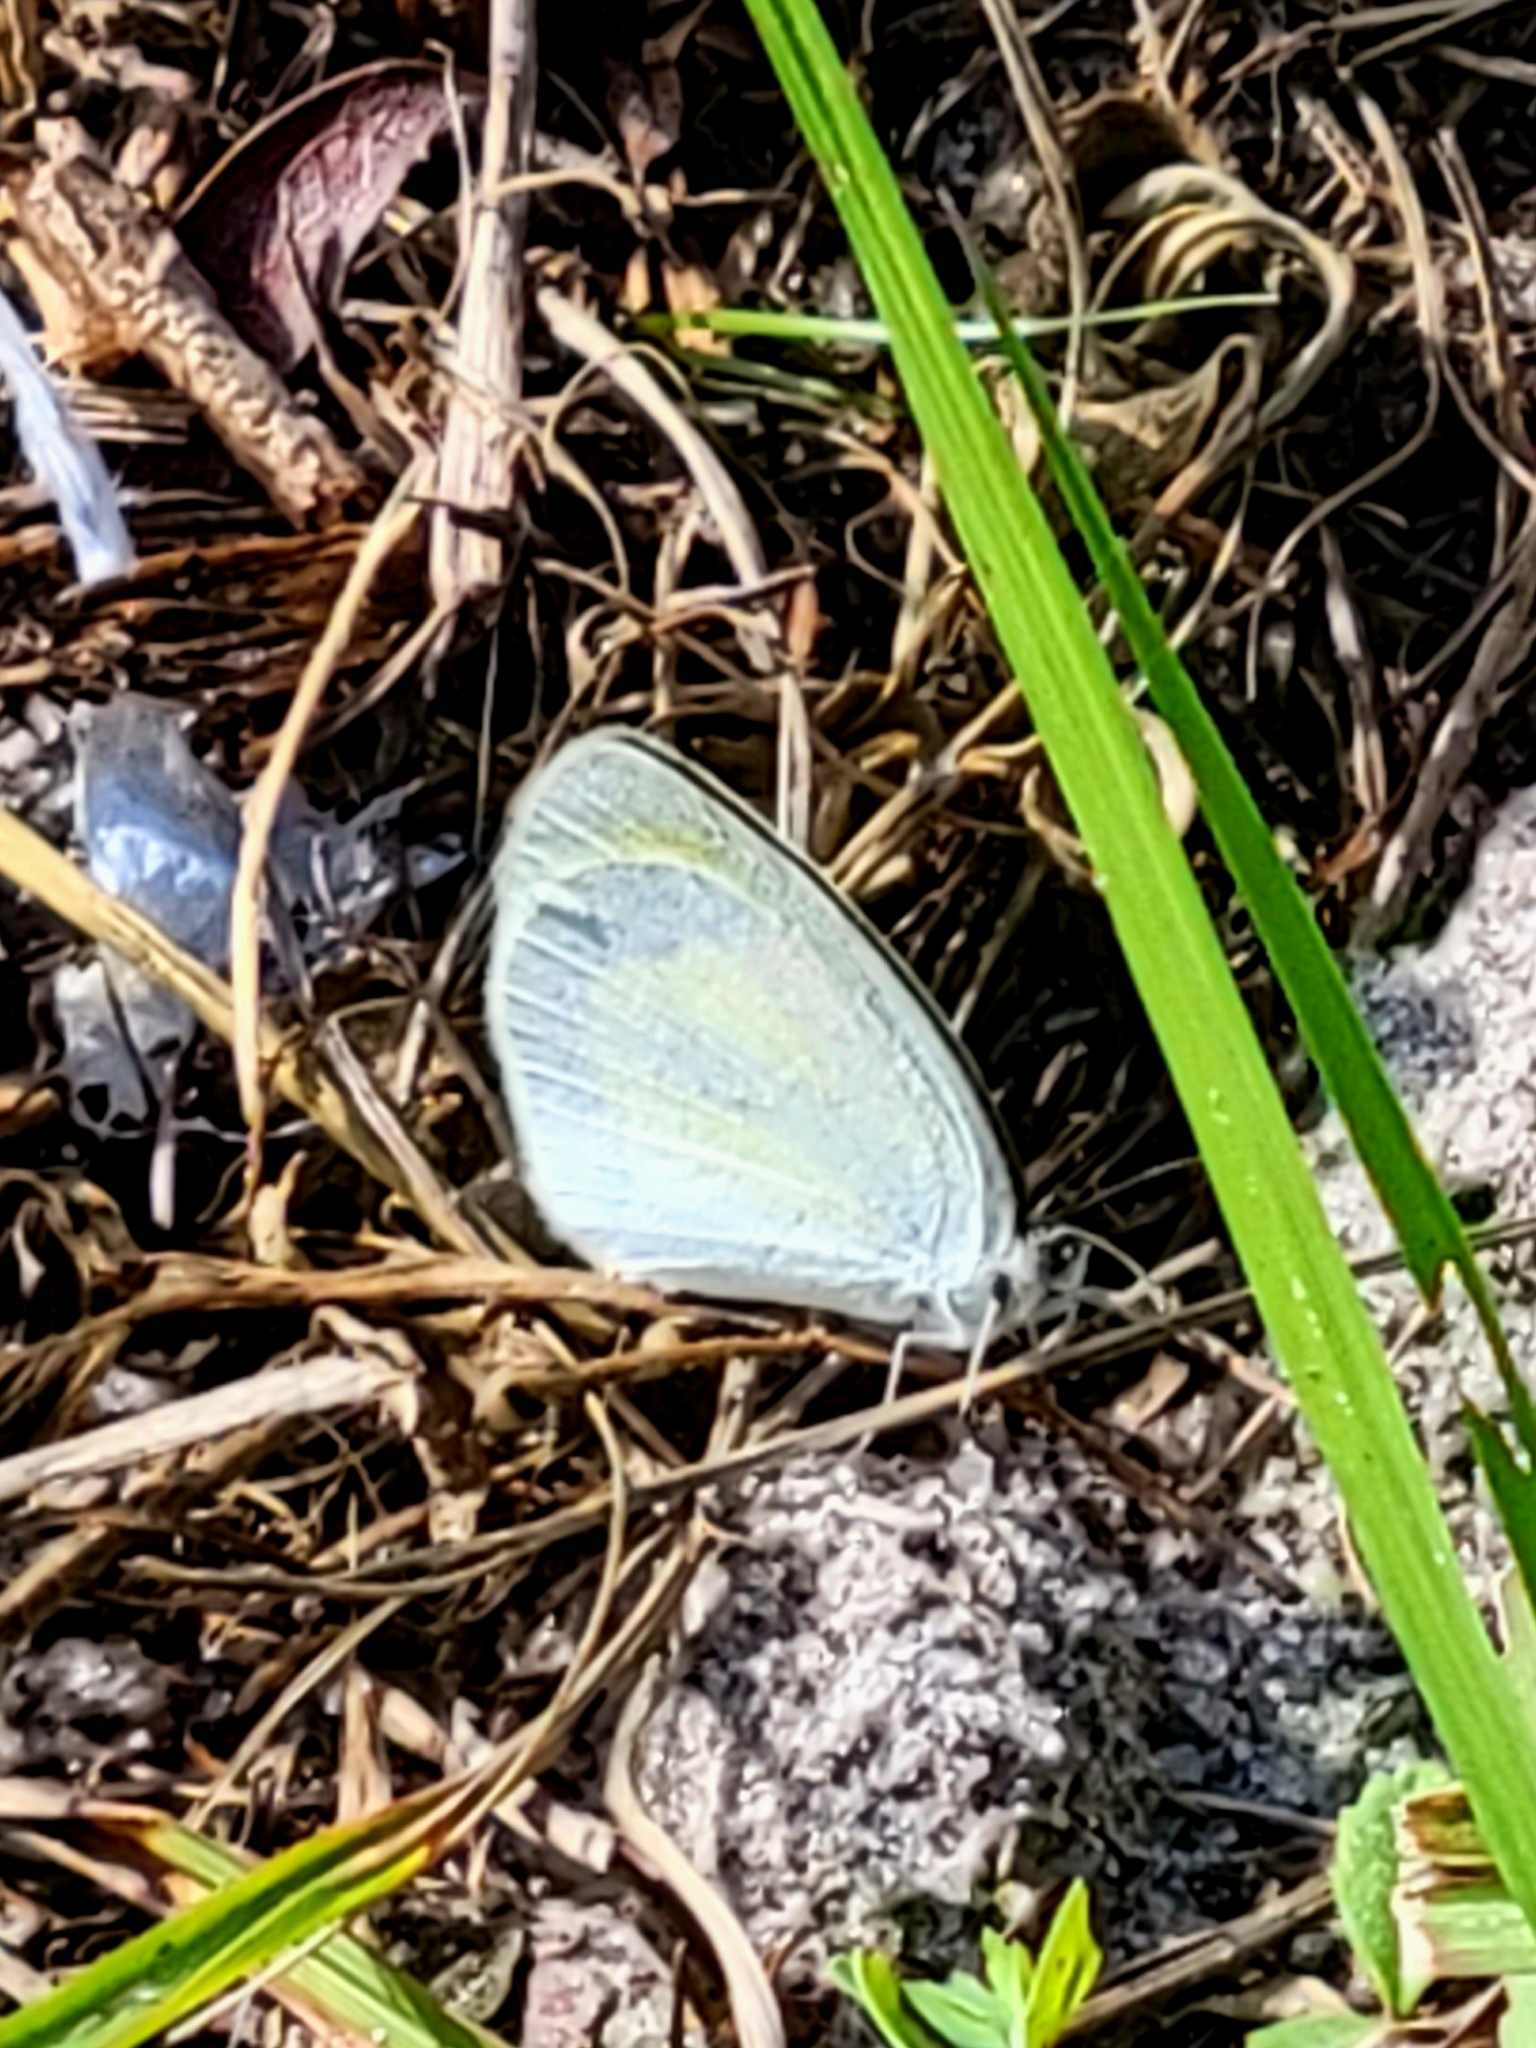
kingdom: Animalia
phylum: Arthropoda
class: Insecta
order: Lepidoptera
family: Pieridae
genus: Eurema
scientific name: Eurema daira
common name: Barred sulphur
